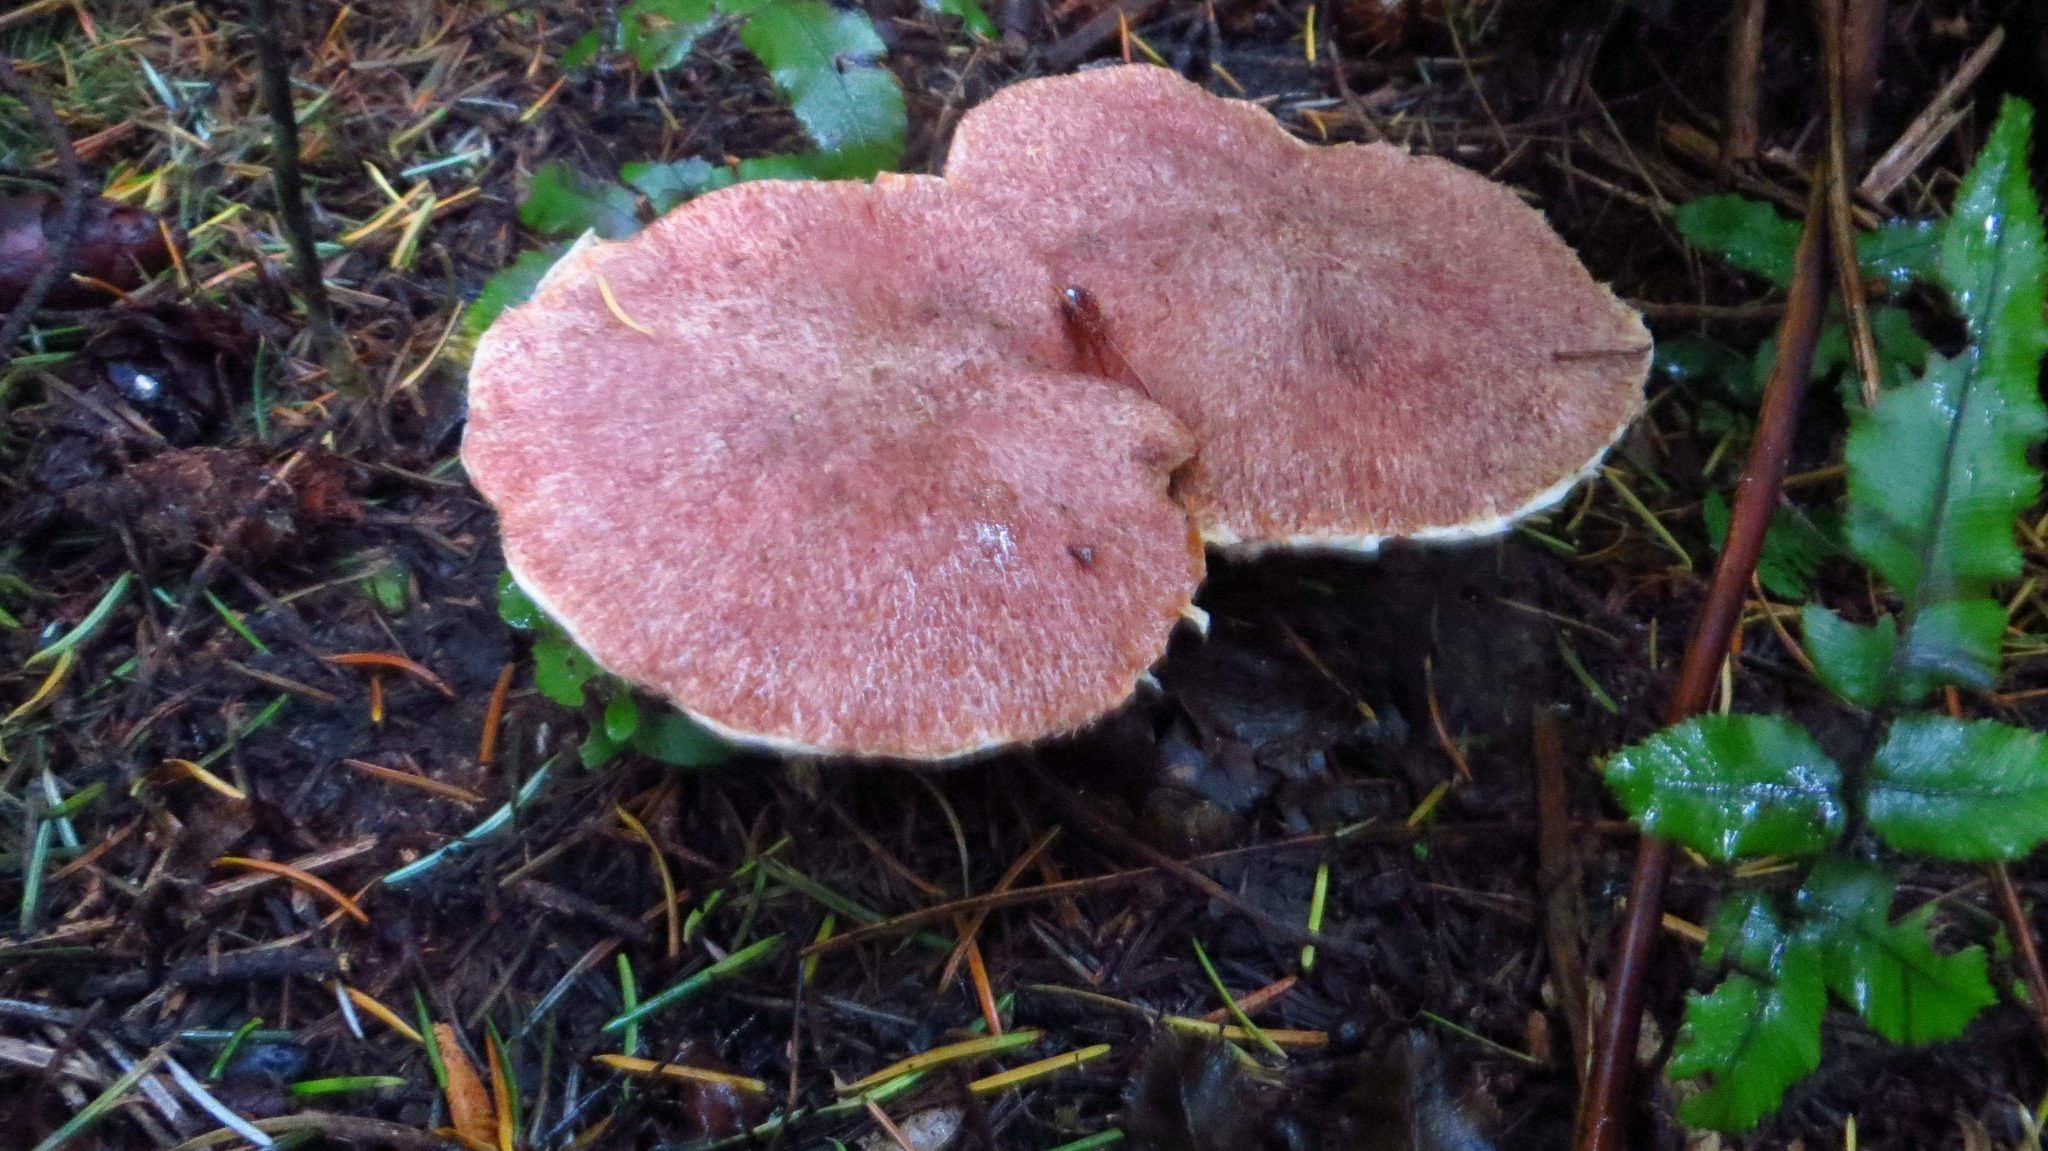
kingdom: Fungi
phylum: Basidiomycota
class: Agaricomycetes
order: Boletales
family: Suillaceae
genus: Suillus
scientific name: Suillus lakei
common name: Western painted suillus
